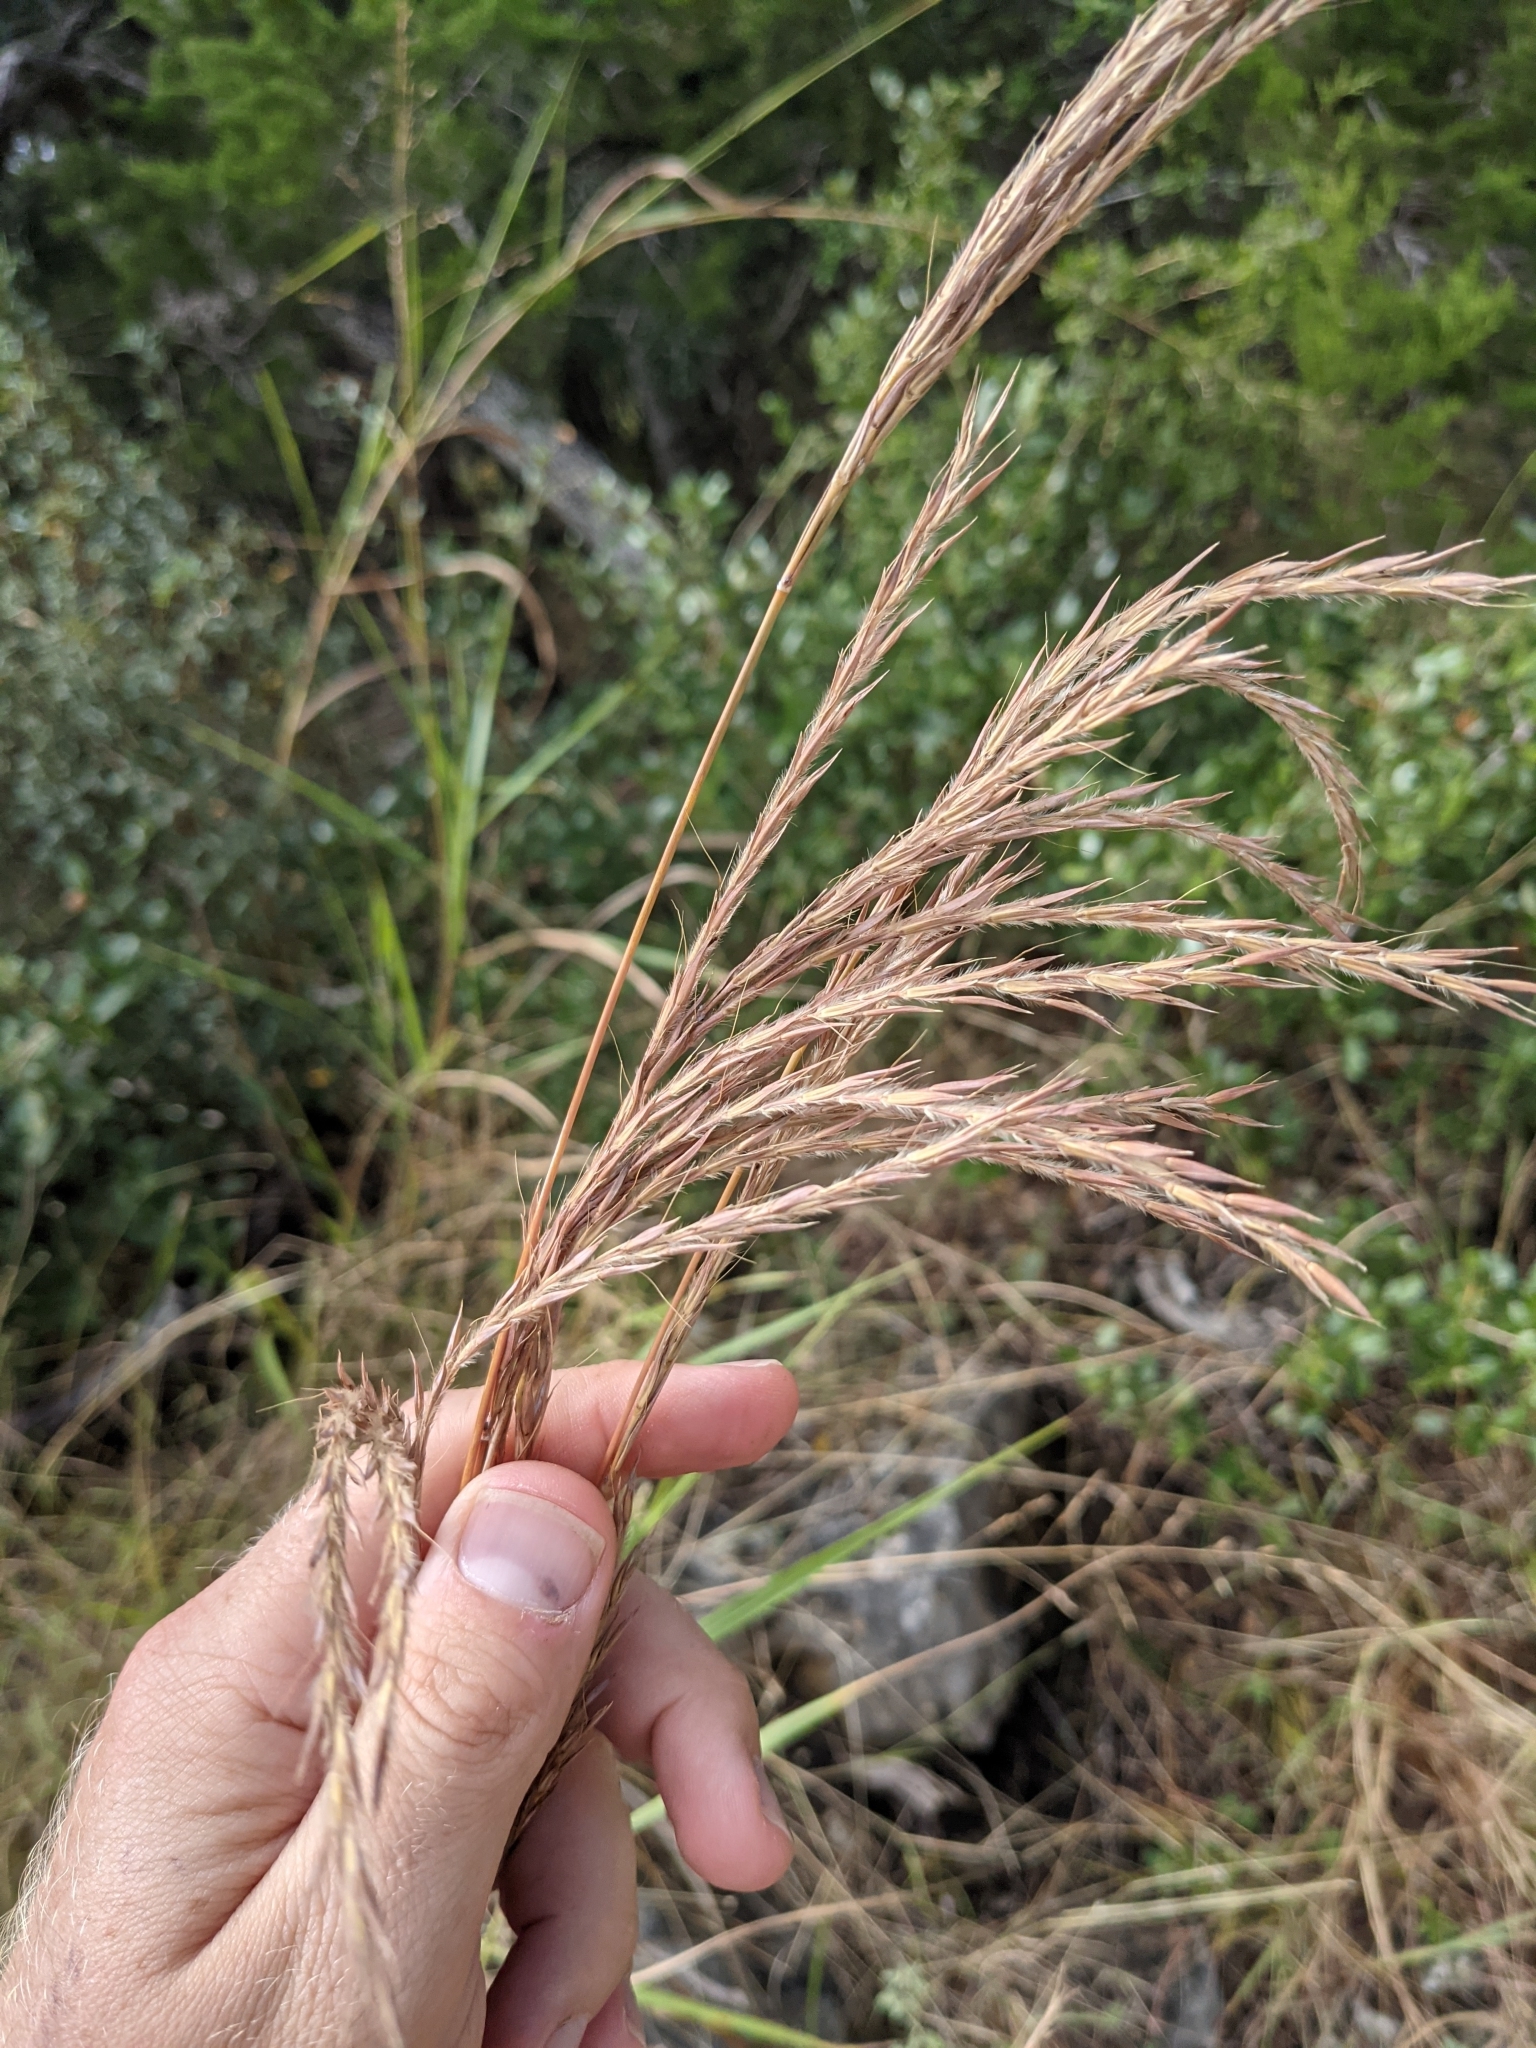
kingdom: Plantae
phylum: Tracheophyta
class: Liliopsida
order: Poales
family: Poaceae
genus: Andropogon
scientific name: Andropogon gerardi
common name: Big bluestem
